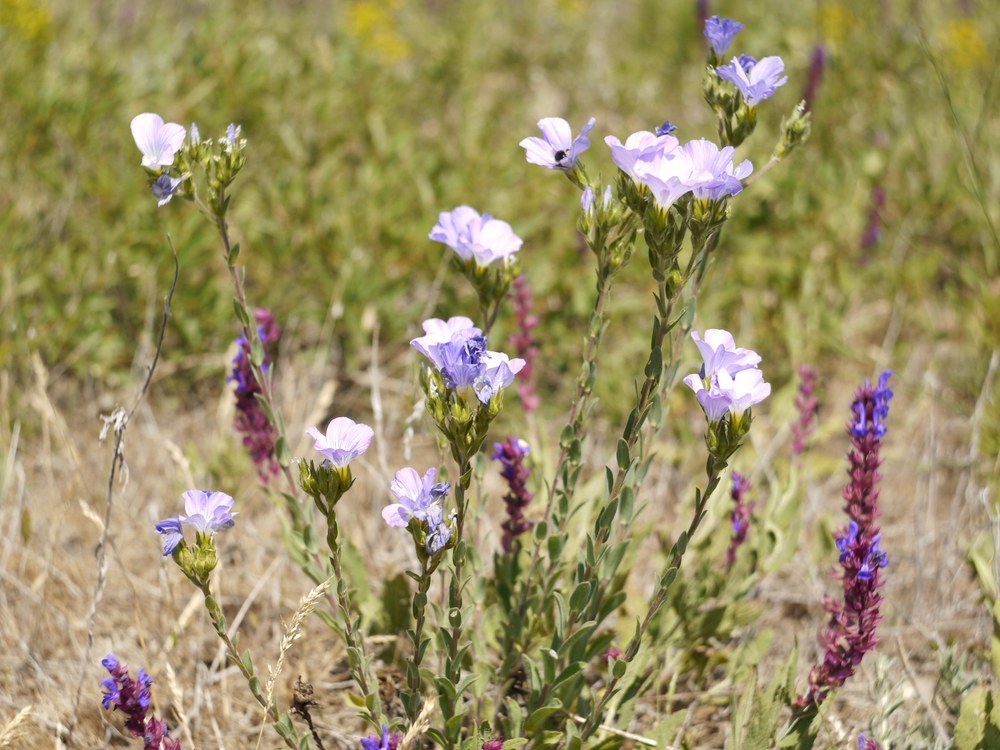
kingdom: Plantae
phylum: Tracheophyta
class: Magnoliopsida
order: Malpighiales
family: Linaceae
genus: Linum
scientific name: Linum hirsutum
